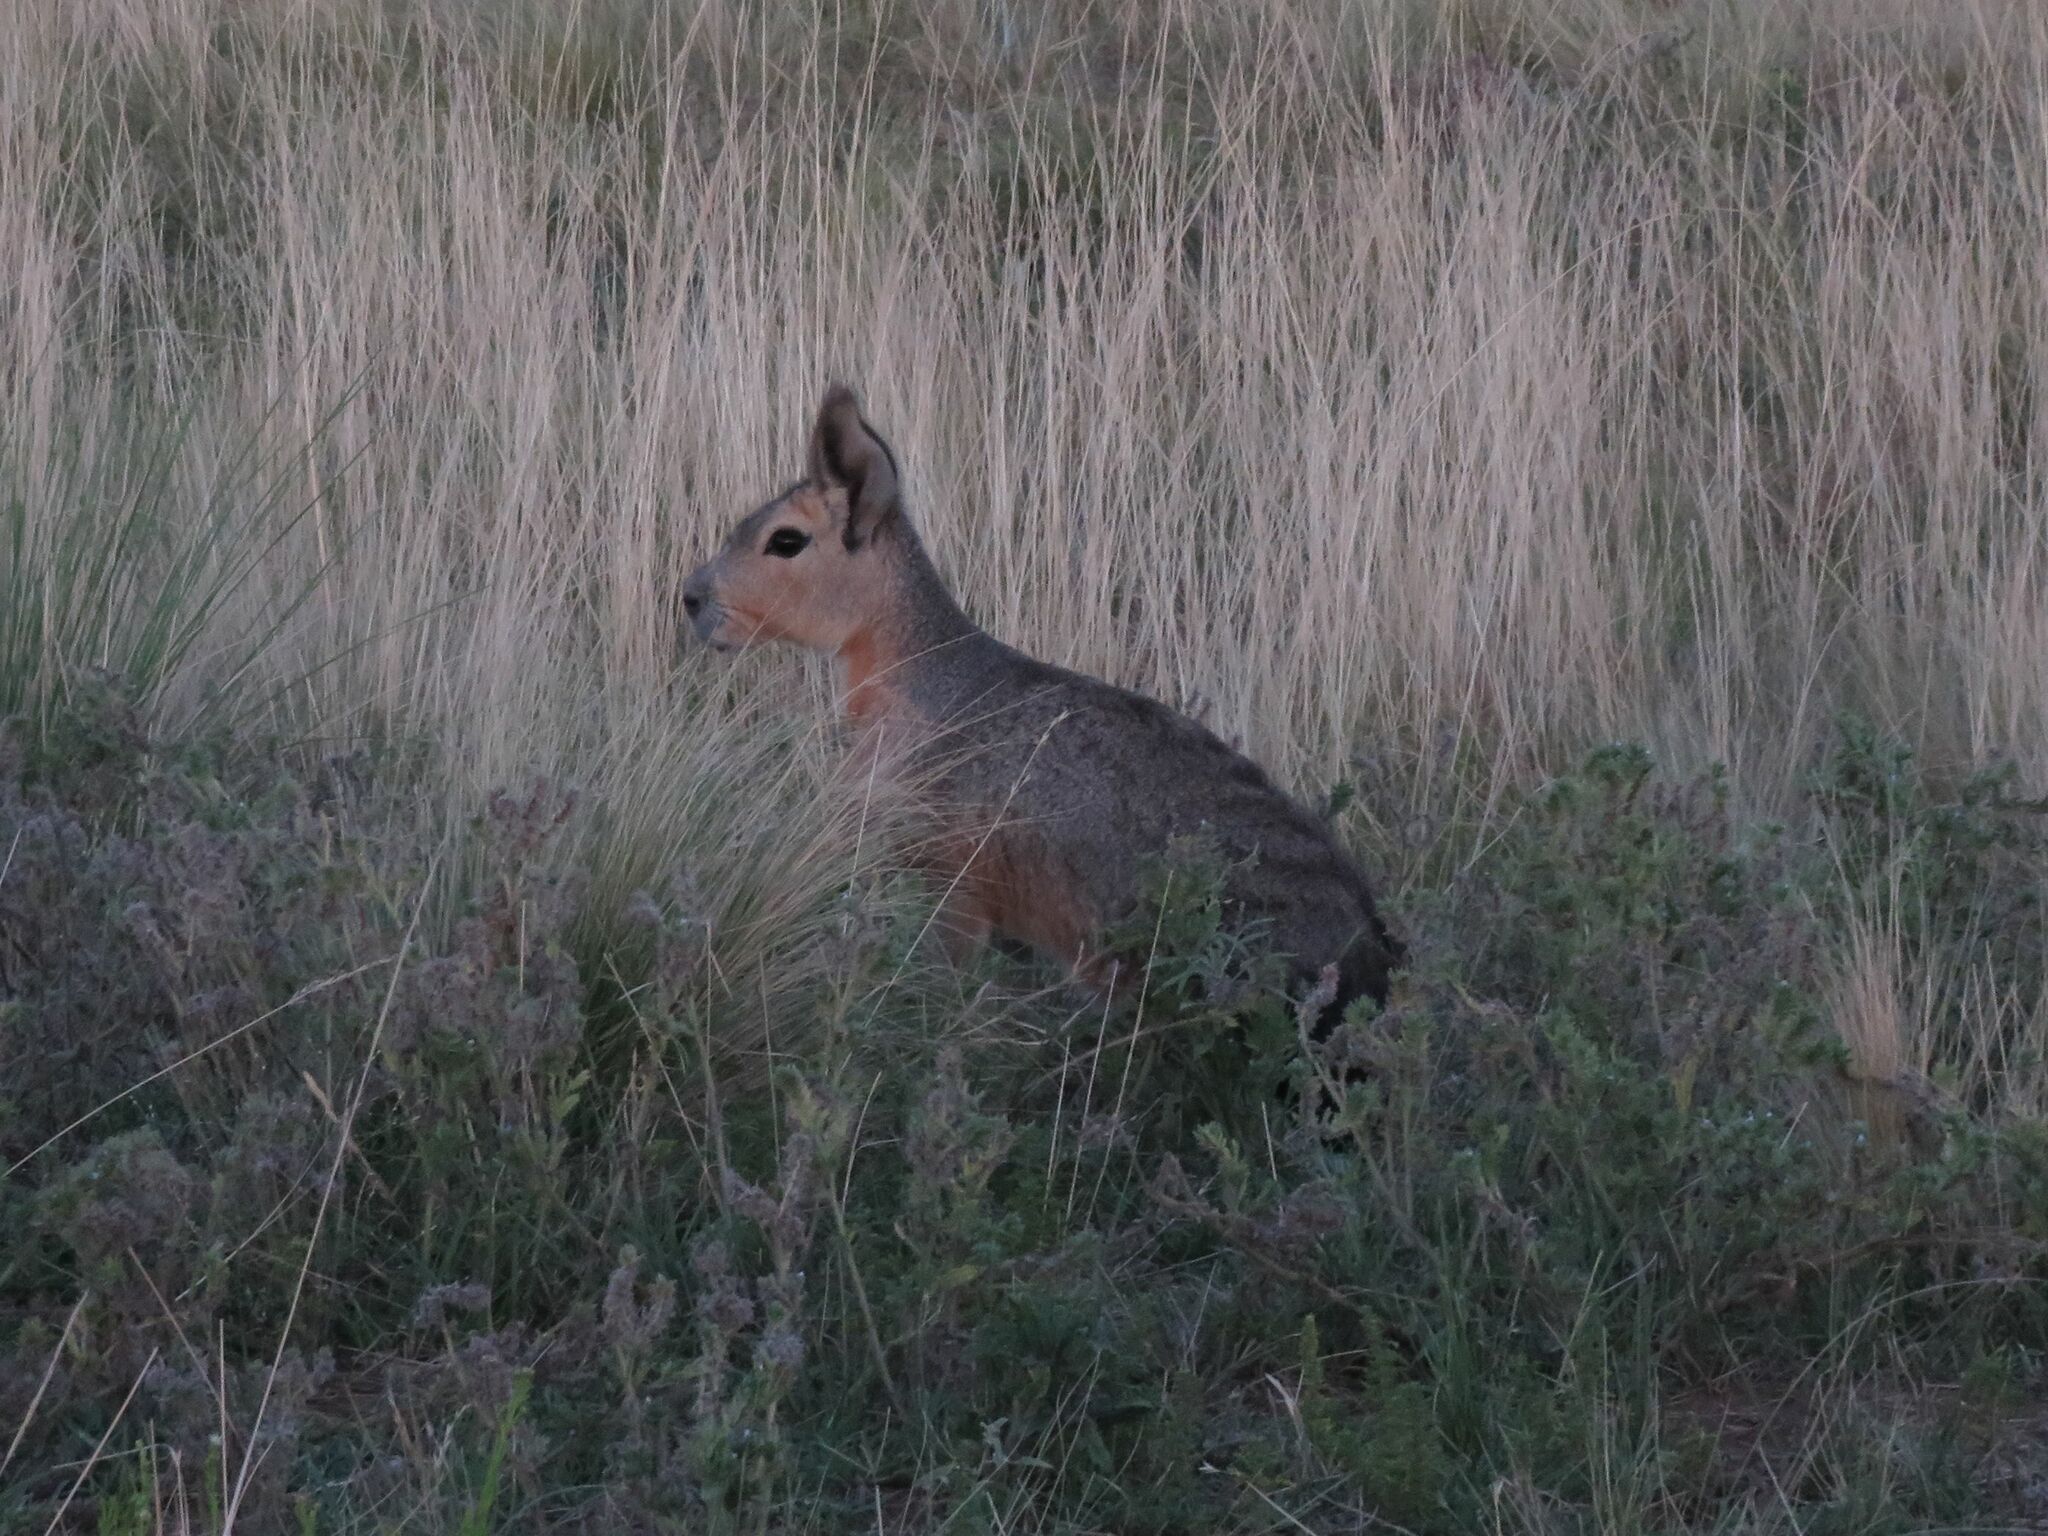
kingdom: Animalia
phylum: Chordata
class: Mammalia
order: Rodentia
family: Caviidae
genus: Dolichotis
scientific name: Dolichotis patagonum
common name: Patagonian mara
